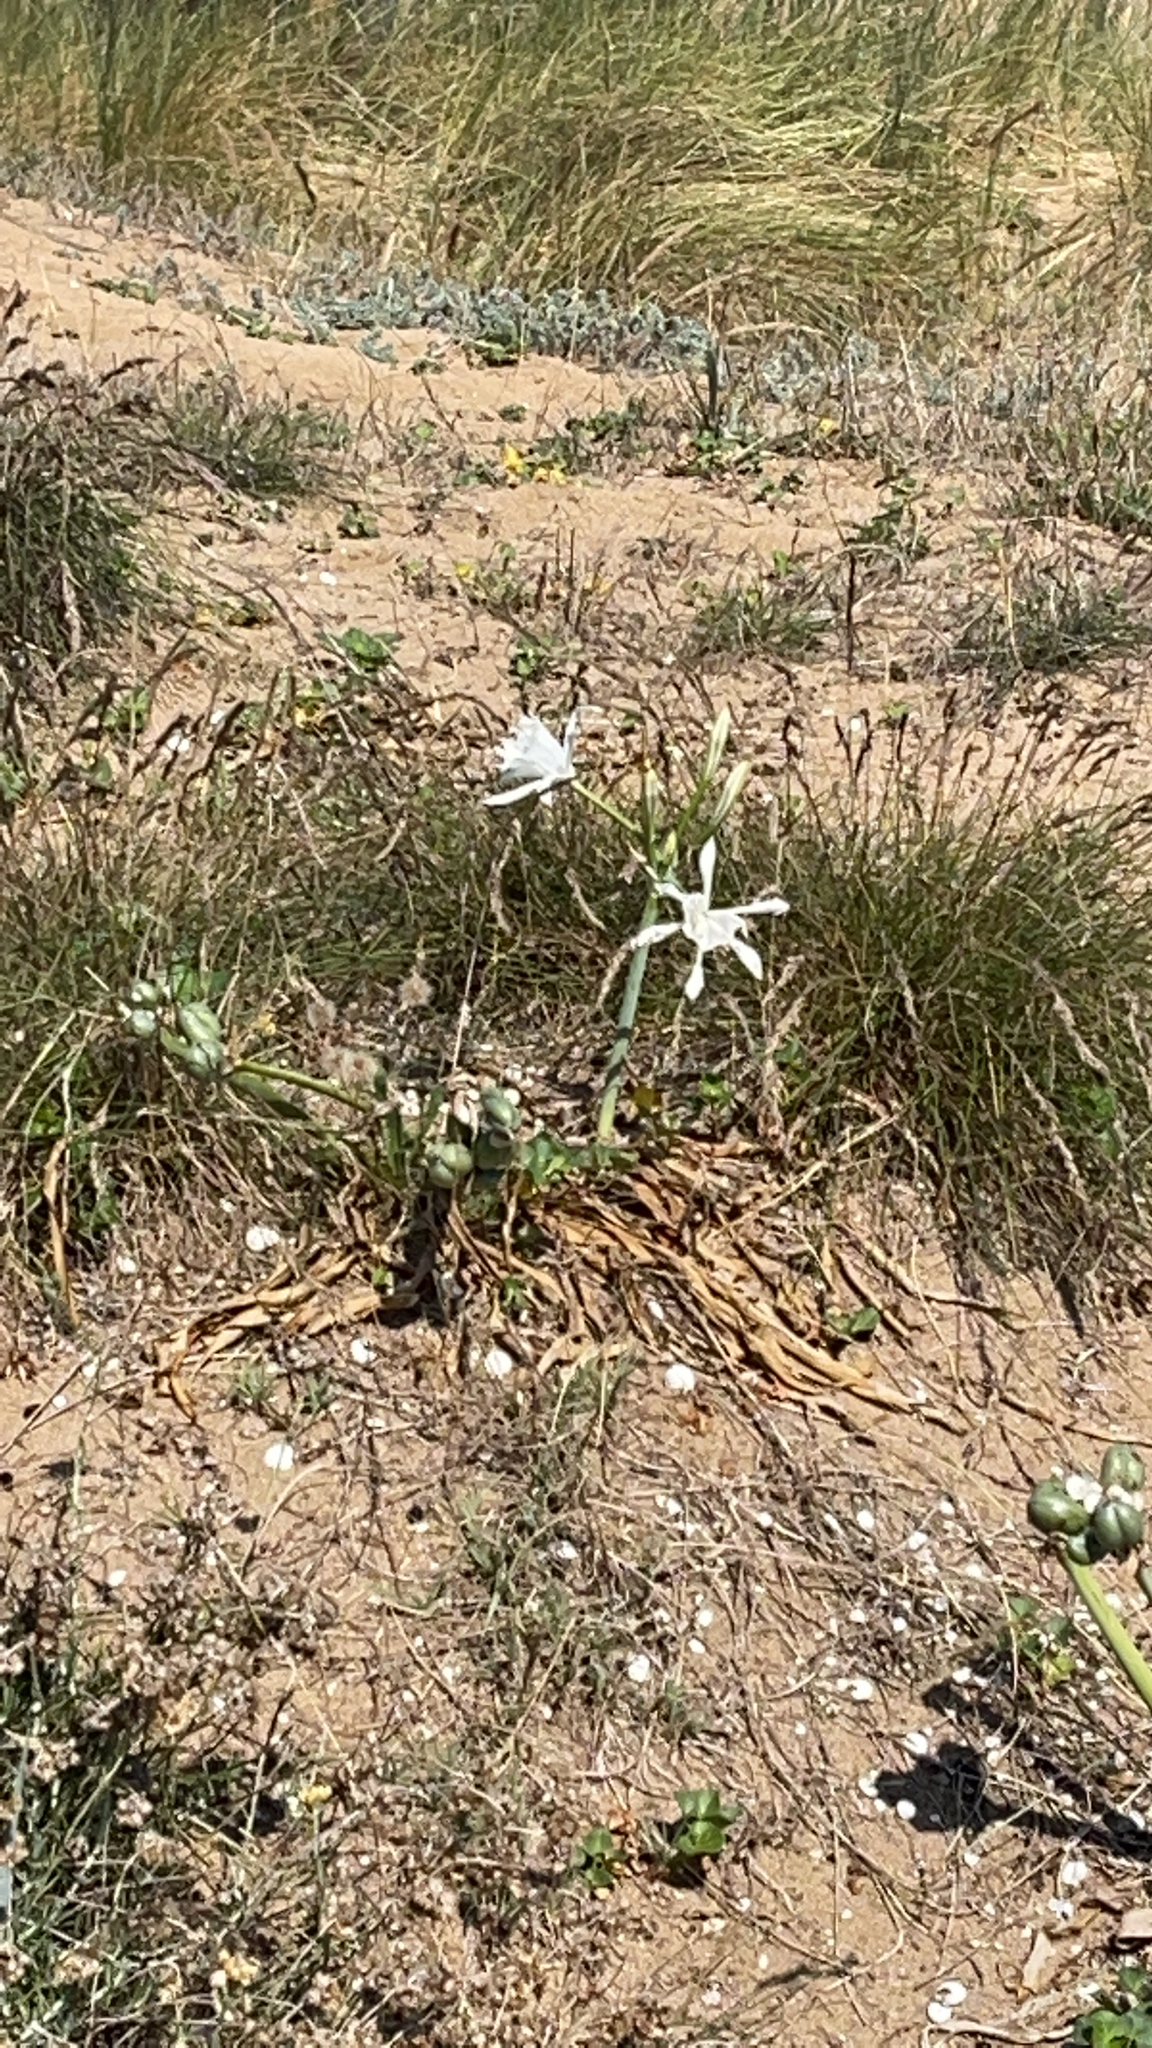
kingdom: Plantae
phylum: Tracheophyta
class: Liliopsida
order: Asparagales
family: Amaryllidaceae
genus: Pancratium
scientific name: Pancratium maritimum
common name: Sea-daffodil
